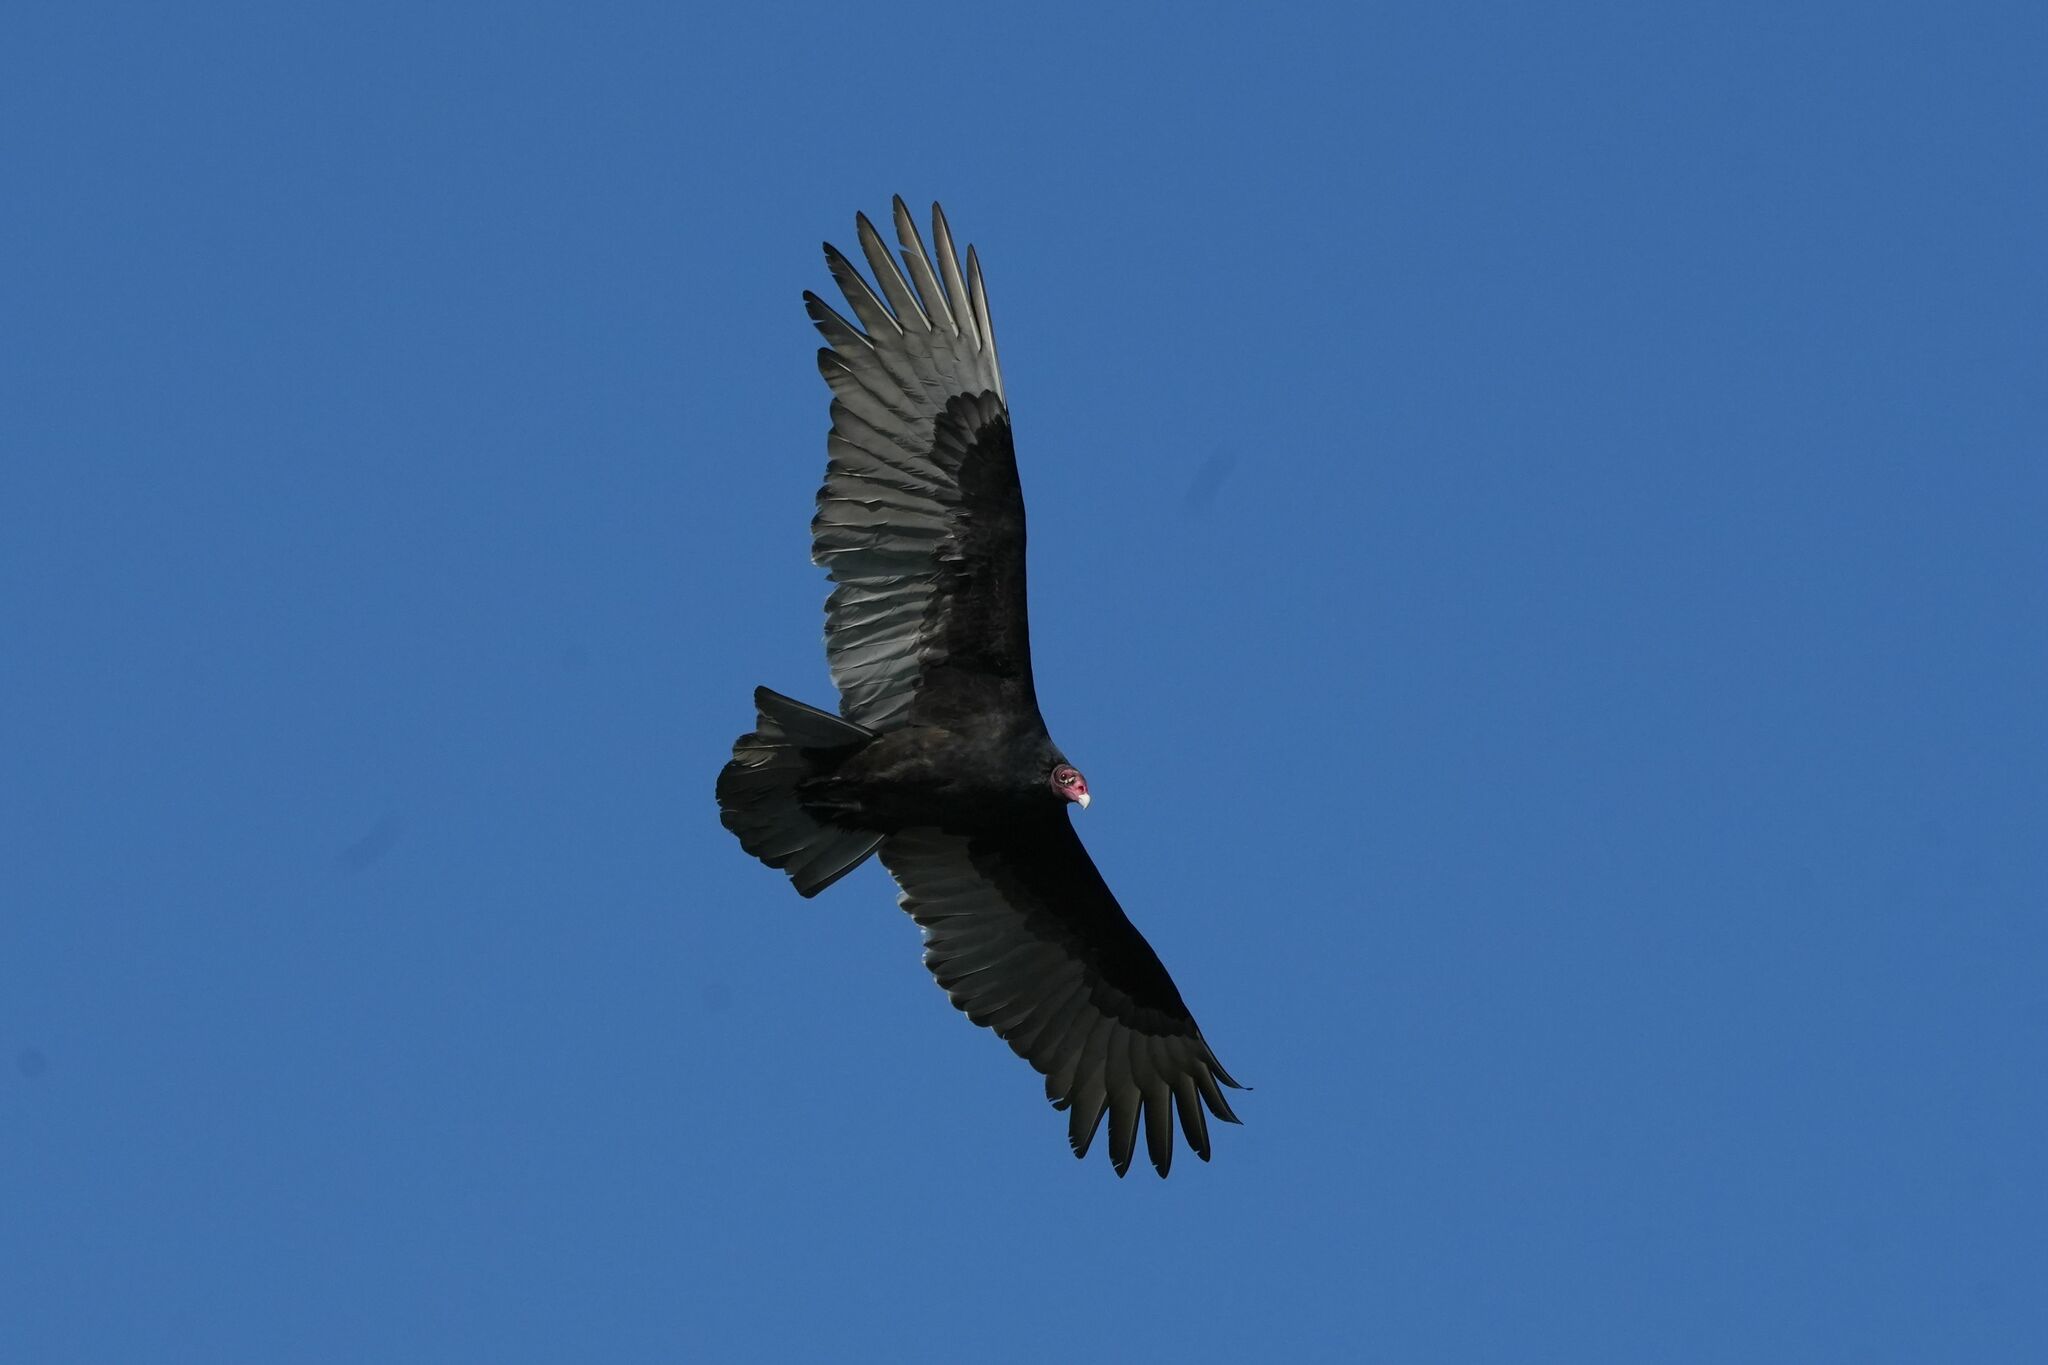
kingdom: Animalia
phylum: Chordata
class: Aves
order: Accipitriformes
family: Cathartidae
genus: Cathartes
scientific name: Cathartes aura
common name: Turkey vulture
